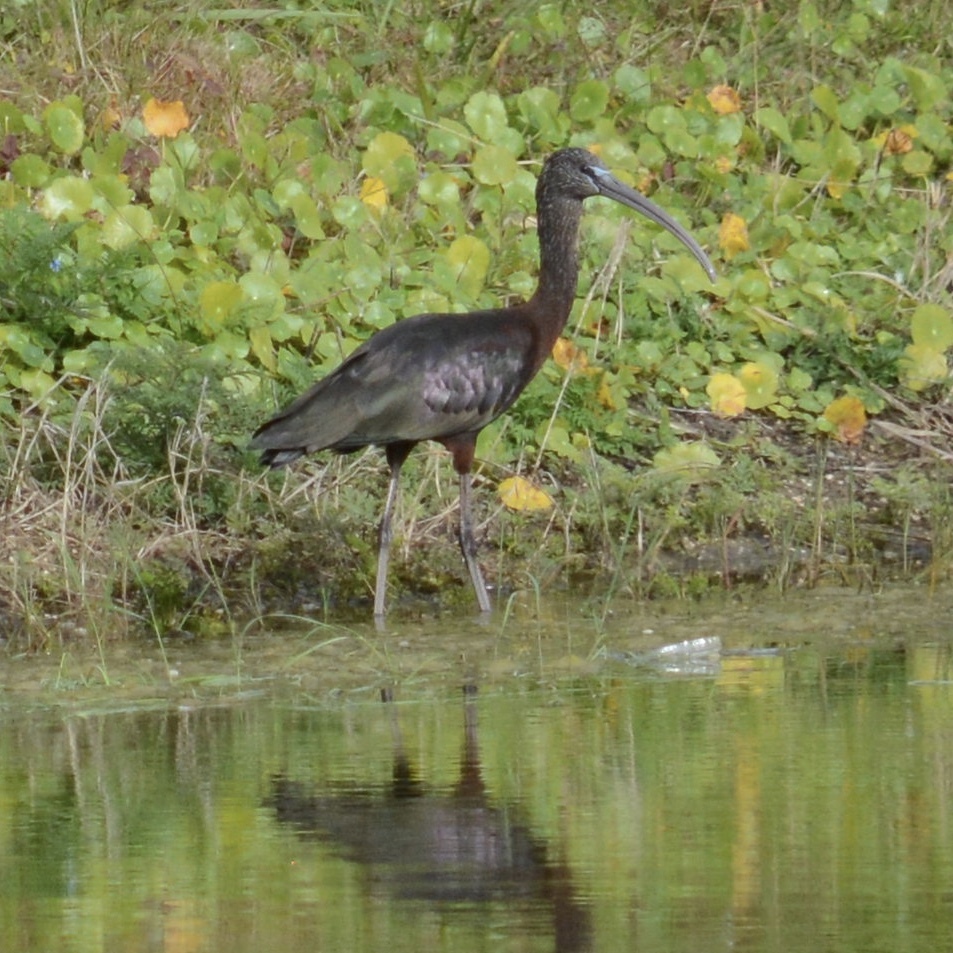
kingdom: Animalia
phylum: Chordata
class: Aves
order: Pelecaniformes
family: Threskiornithidae
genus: Plegadis
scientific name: Plegadis falcinellus
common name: Glossy ibis
